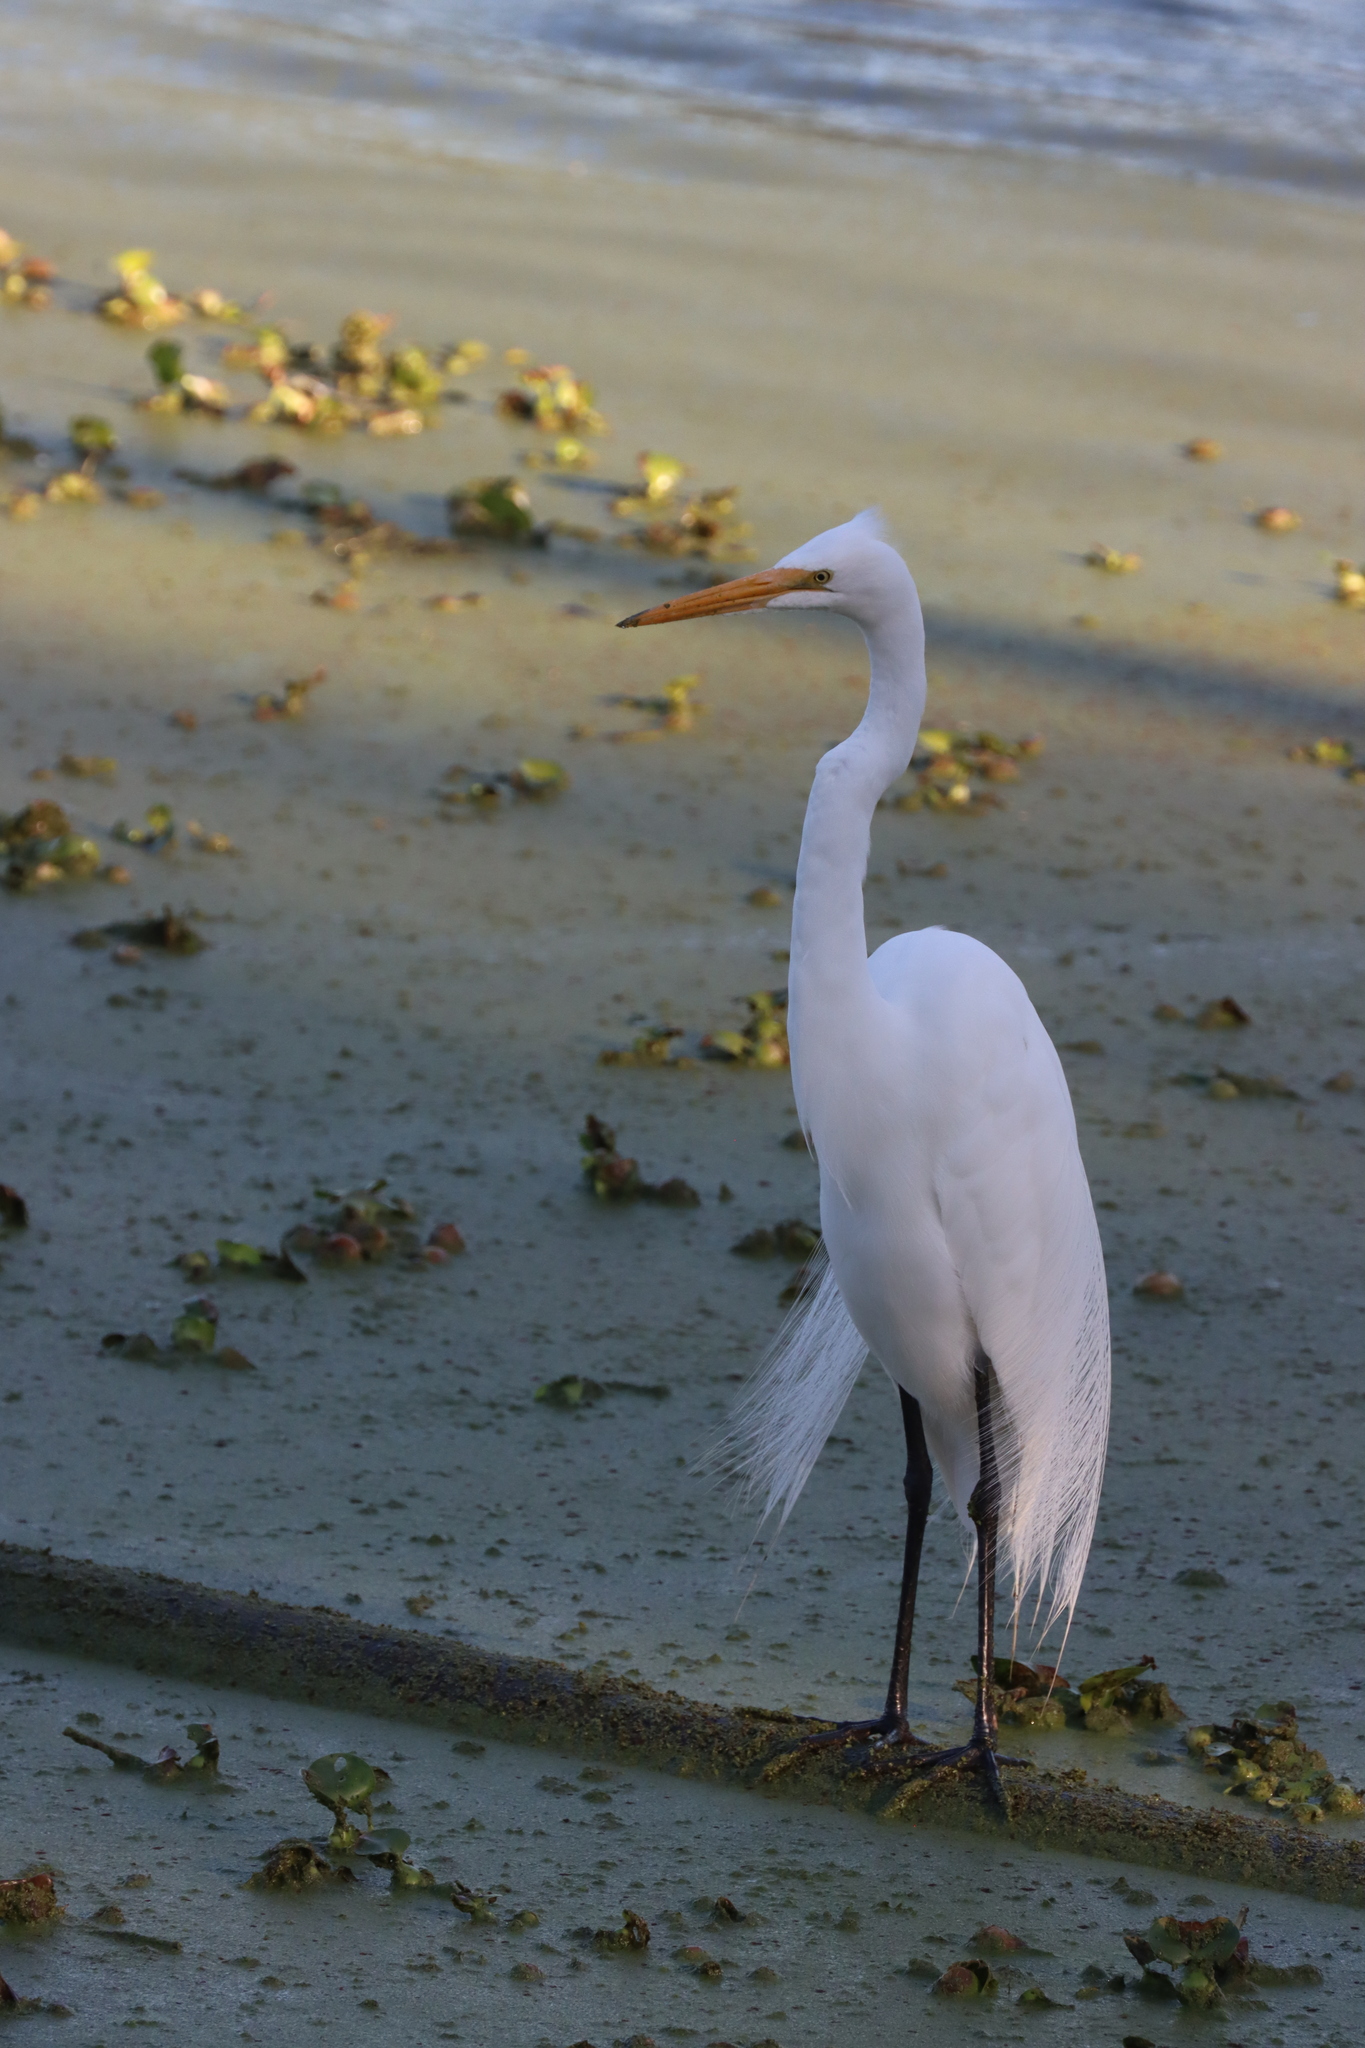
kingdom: Animalia
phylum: Chordata
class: Aves
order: Pelecaniformes
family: Ardeidae
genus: Ardea
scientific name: Ardea alba
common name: Great egret
